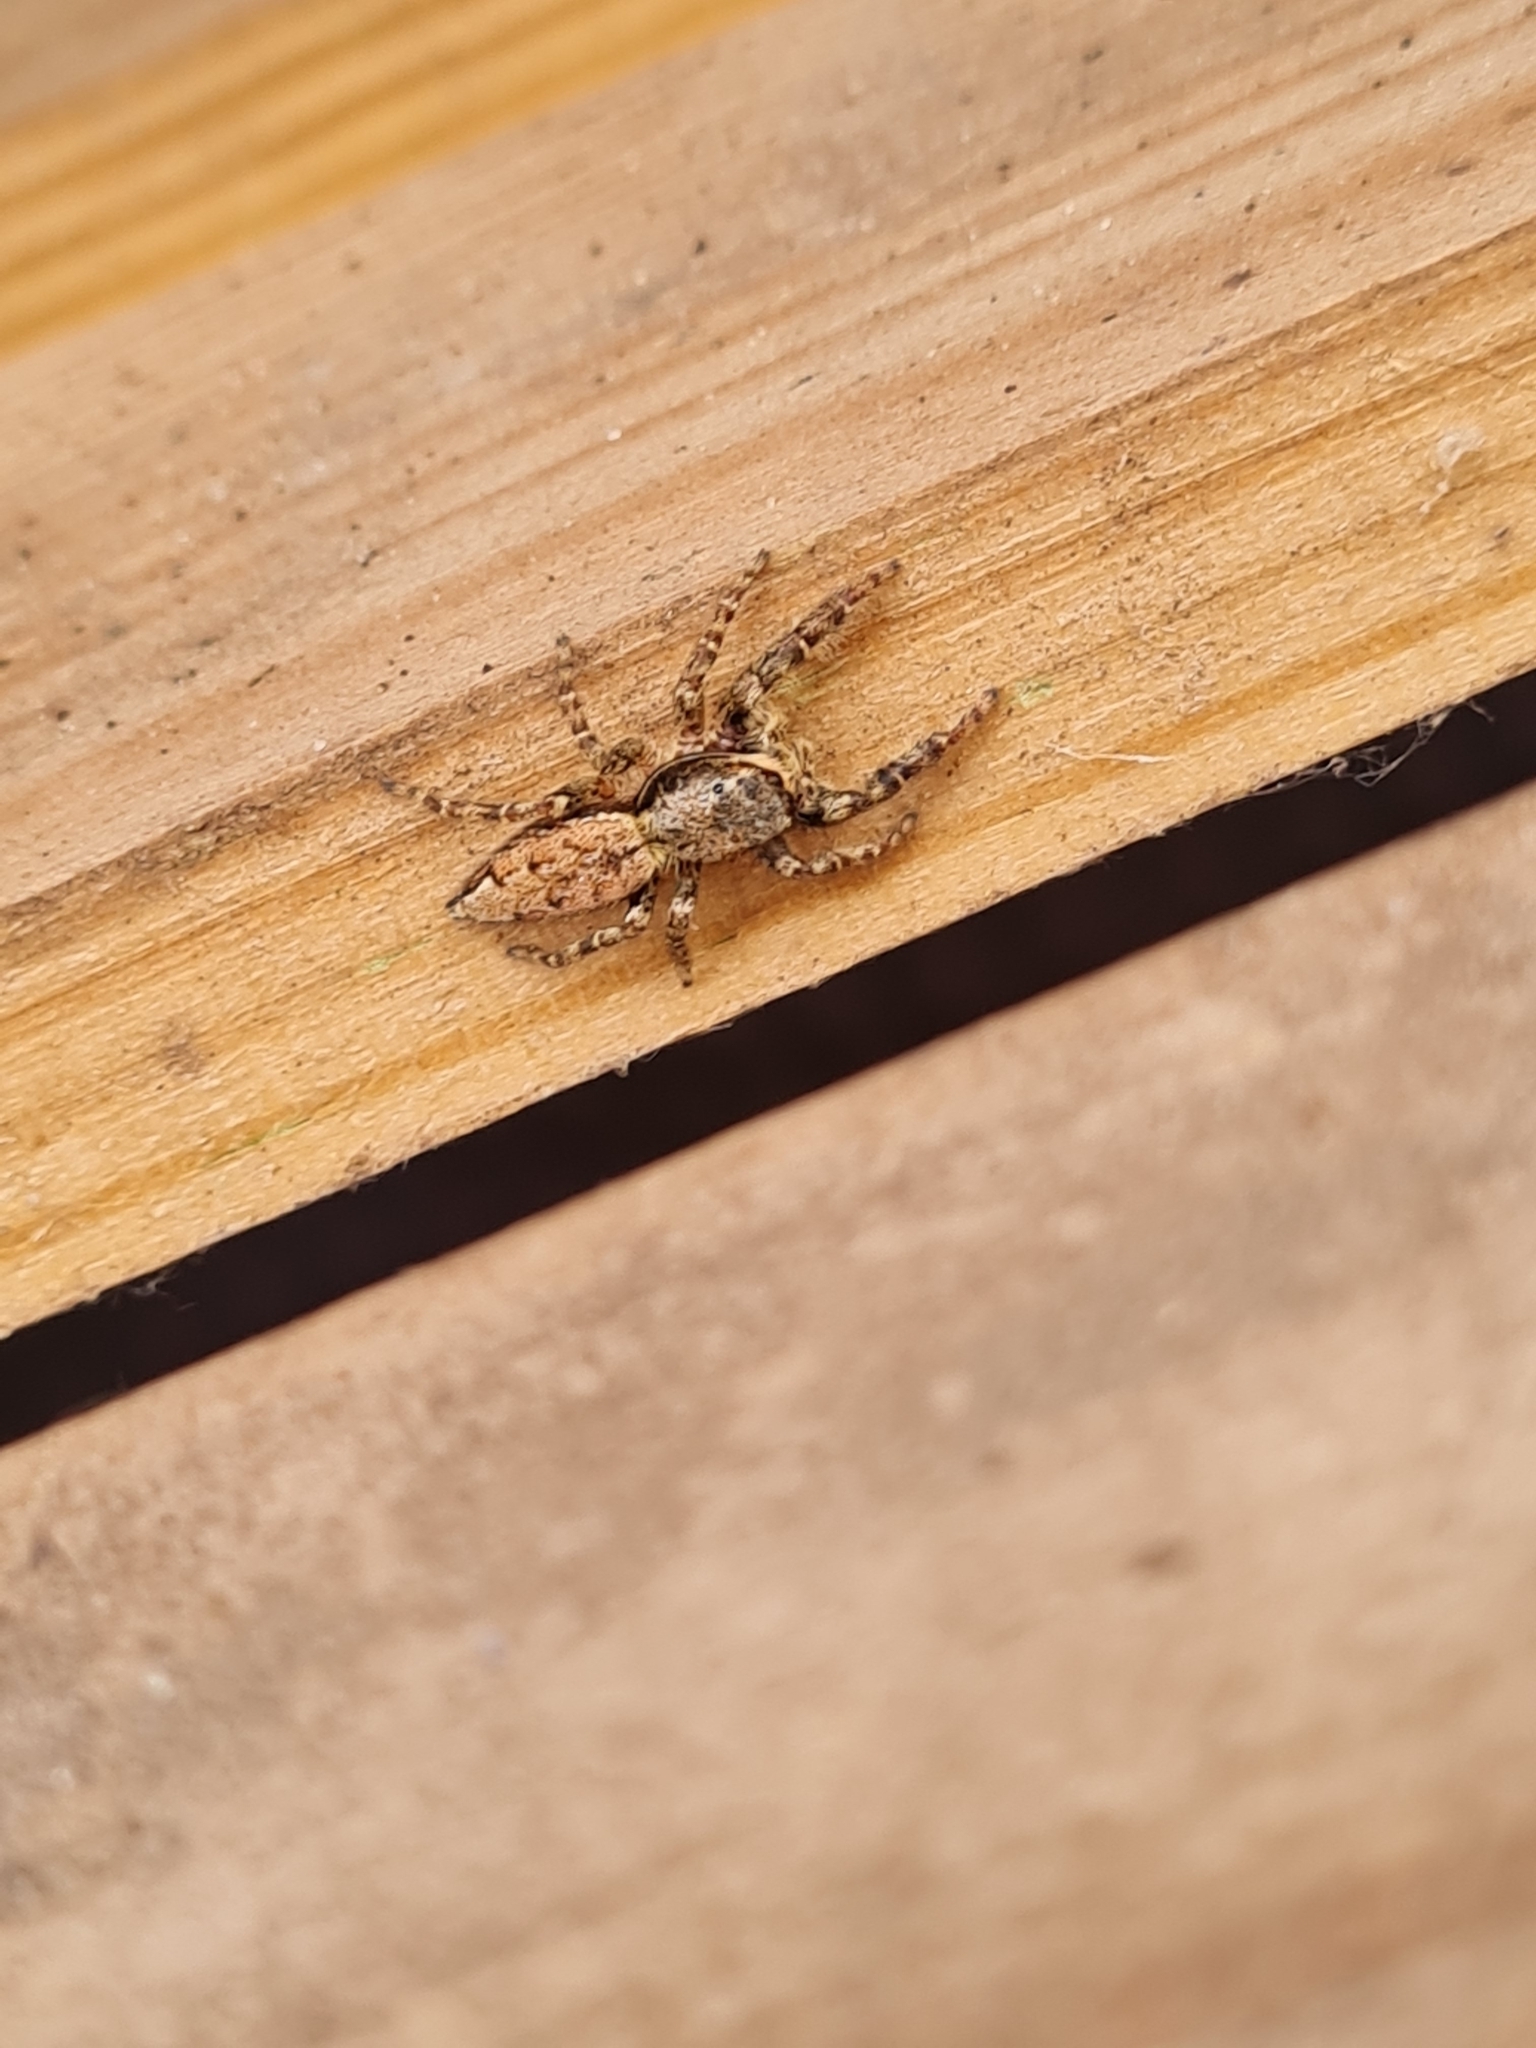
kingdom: Animalia
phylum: Arthropoda
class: Arachnida
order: Araneae
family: Salticidae
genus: Marpissa
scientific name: Marpissa muscosa
